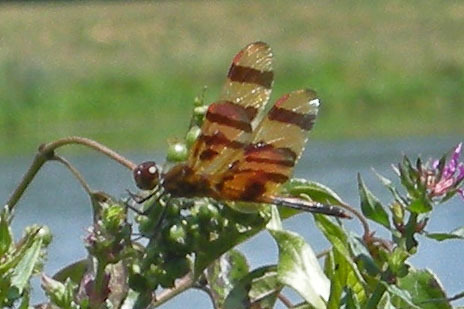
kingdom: Animalia
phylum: Arthropoda
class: Insecta
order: Odonata
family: Libellulidae
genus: Celithemis
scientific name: Celithemis eponina
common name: Halloween pennant
